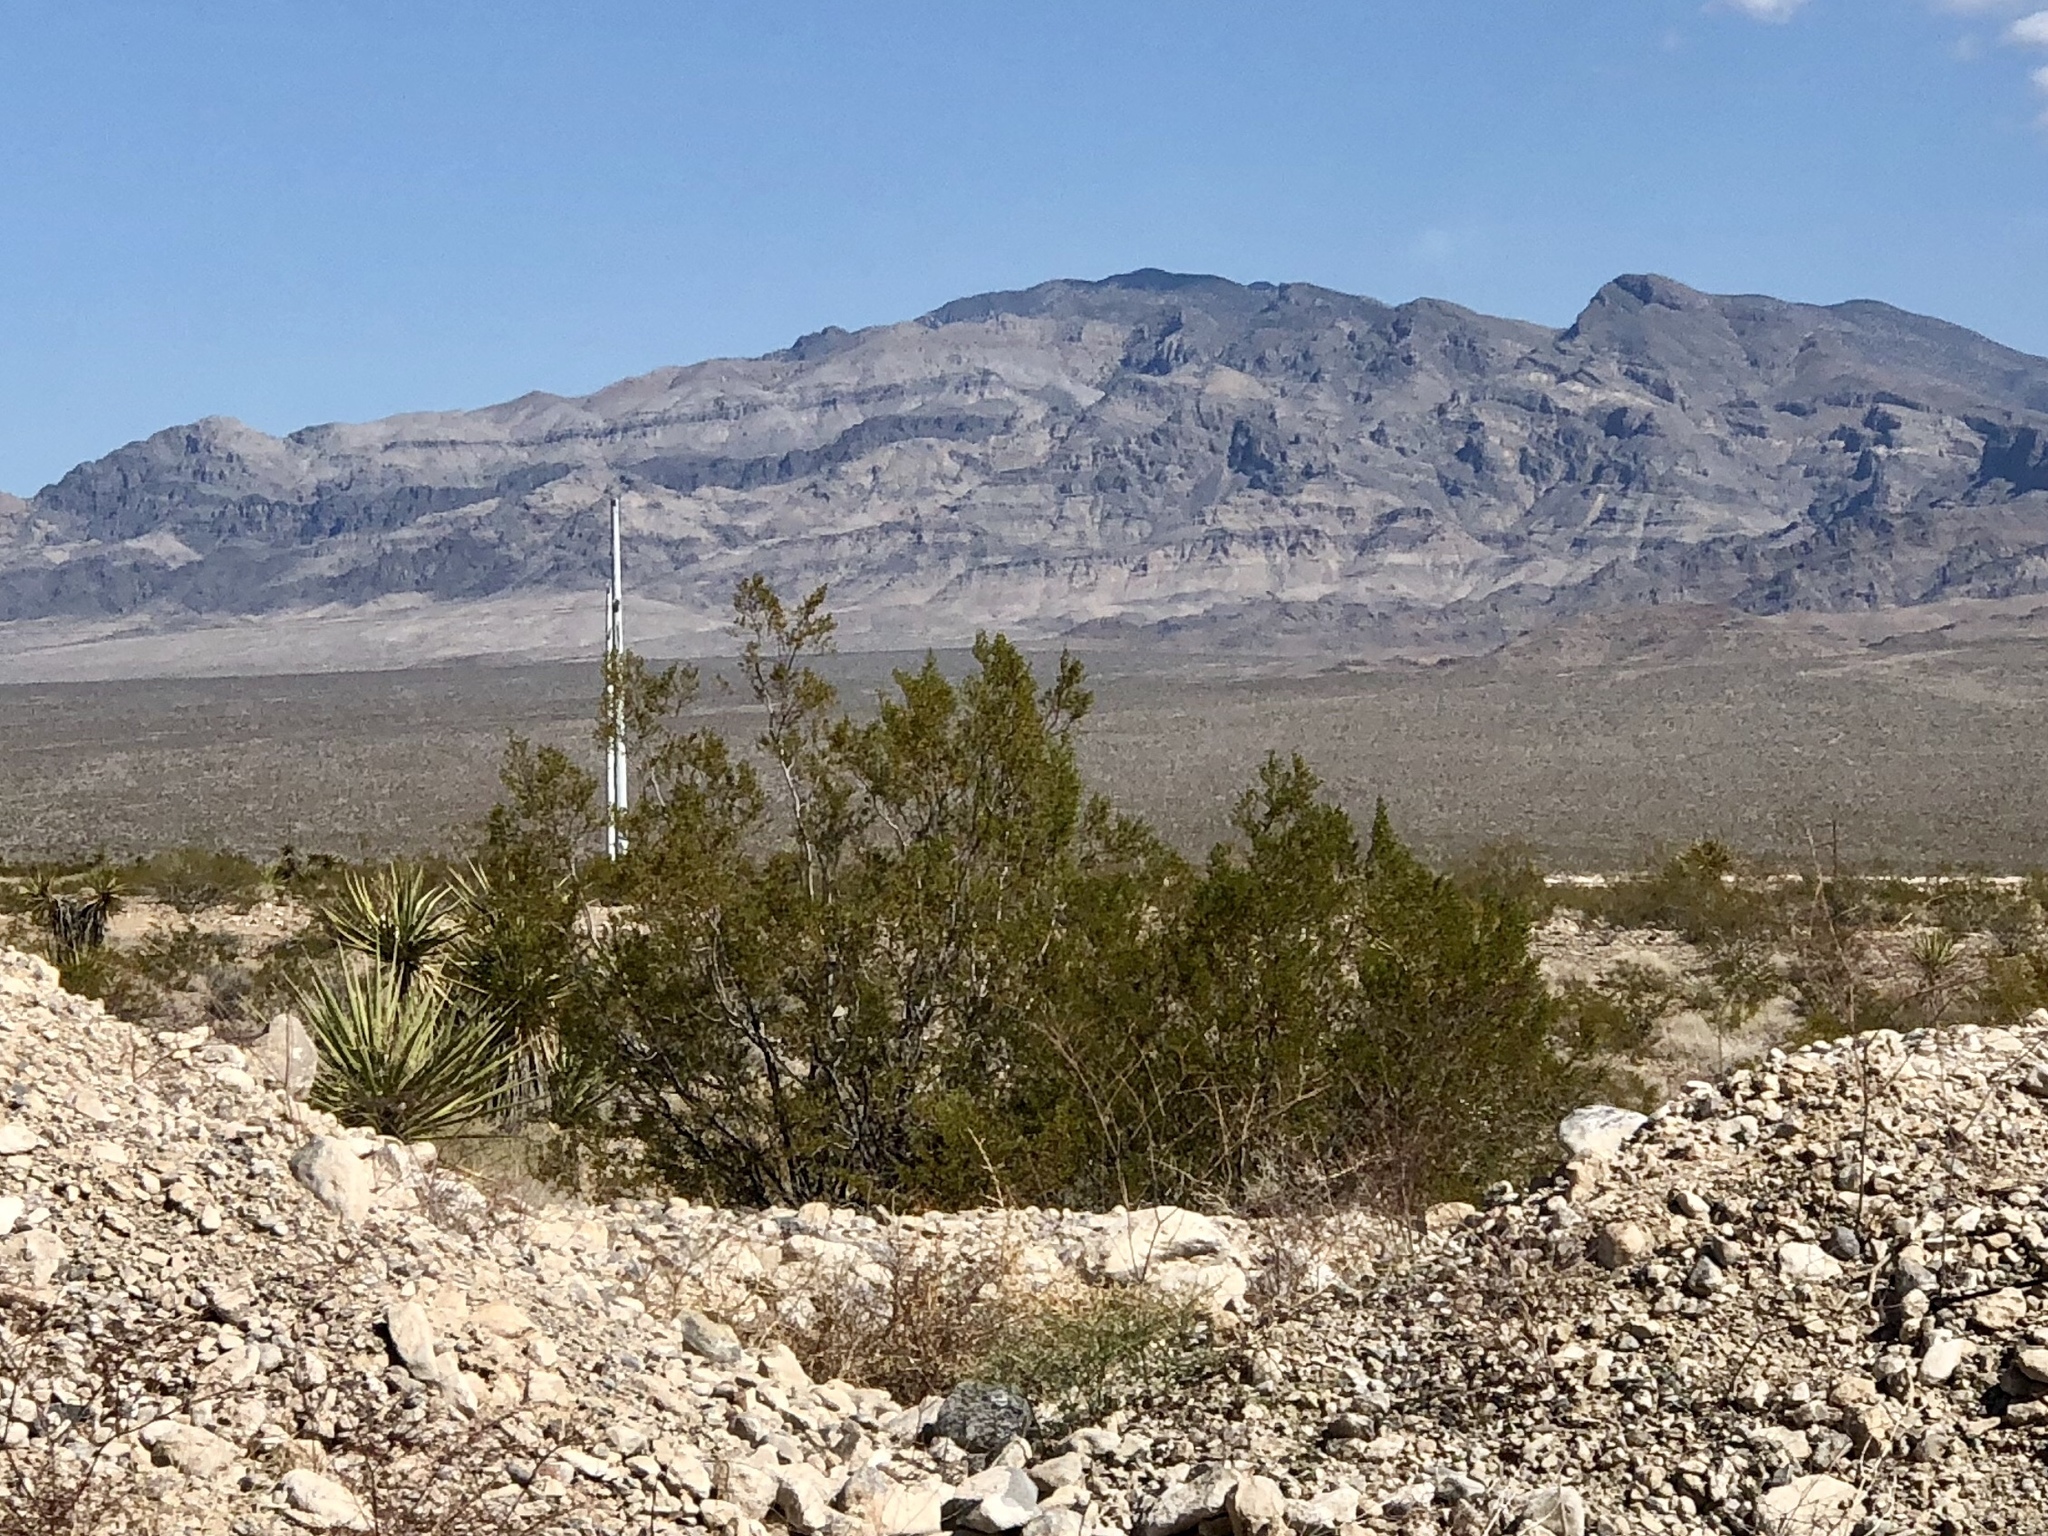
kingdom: Plantae
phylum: Tracheophyta
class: Magnoliopsida
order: Zygophyllales
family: Zygophyllaceae
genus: Larrea
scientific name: Larrea tridentata
